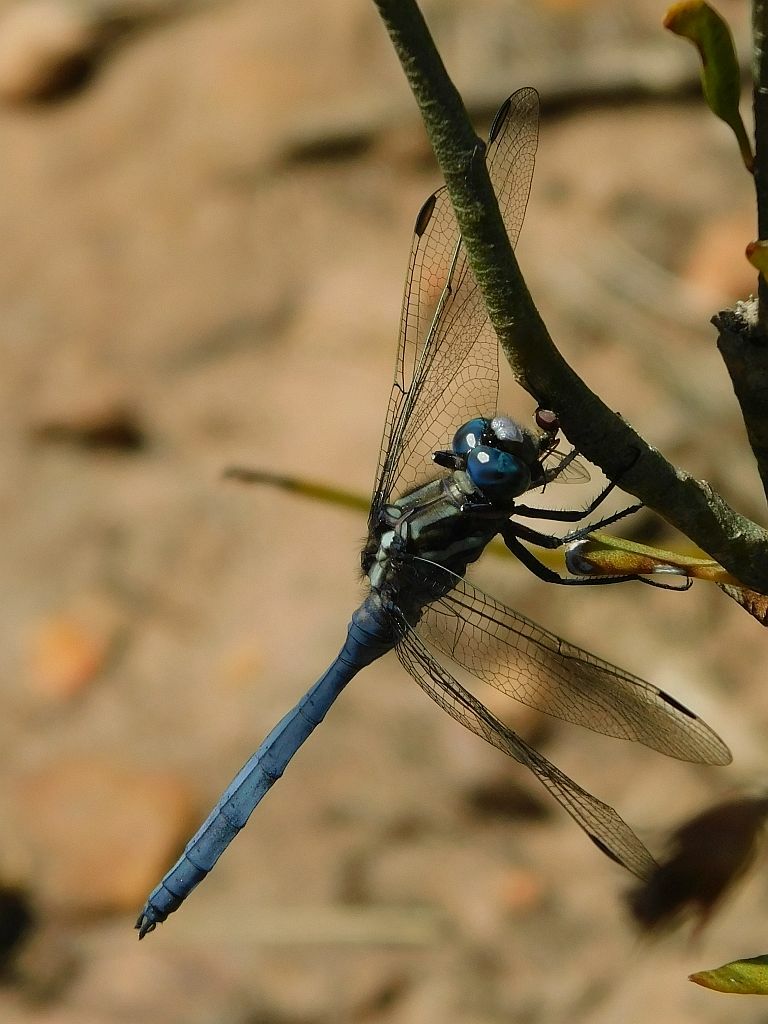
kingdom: Animalia
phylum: Arthropoda
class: Insecta
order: Odonata
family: Libellulidae
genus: Orthetrum
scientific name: Orthetrum julia
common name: Julia skimmer
